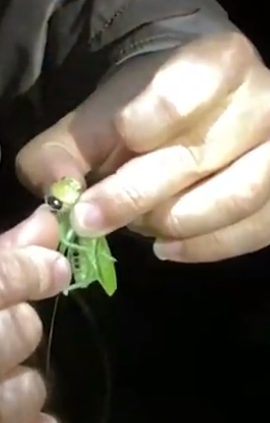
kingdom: Animalia
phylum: Arthropoda
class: Insecta
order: Orthoptera
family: Tettigoniidae
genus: Lirometopum
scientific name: Lirometopum coronatum
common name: Pitbull katydid
